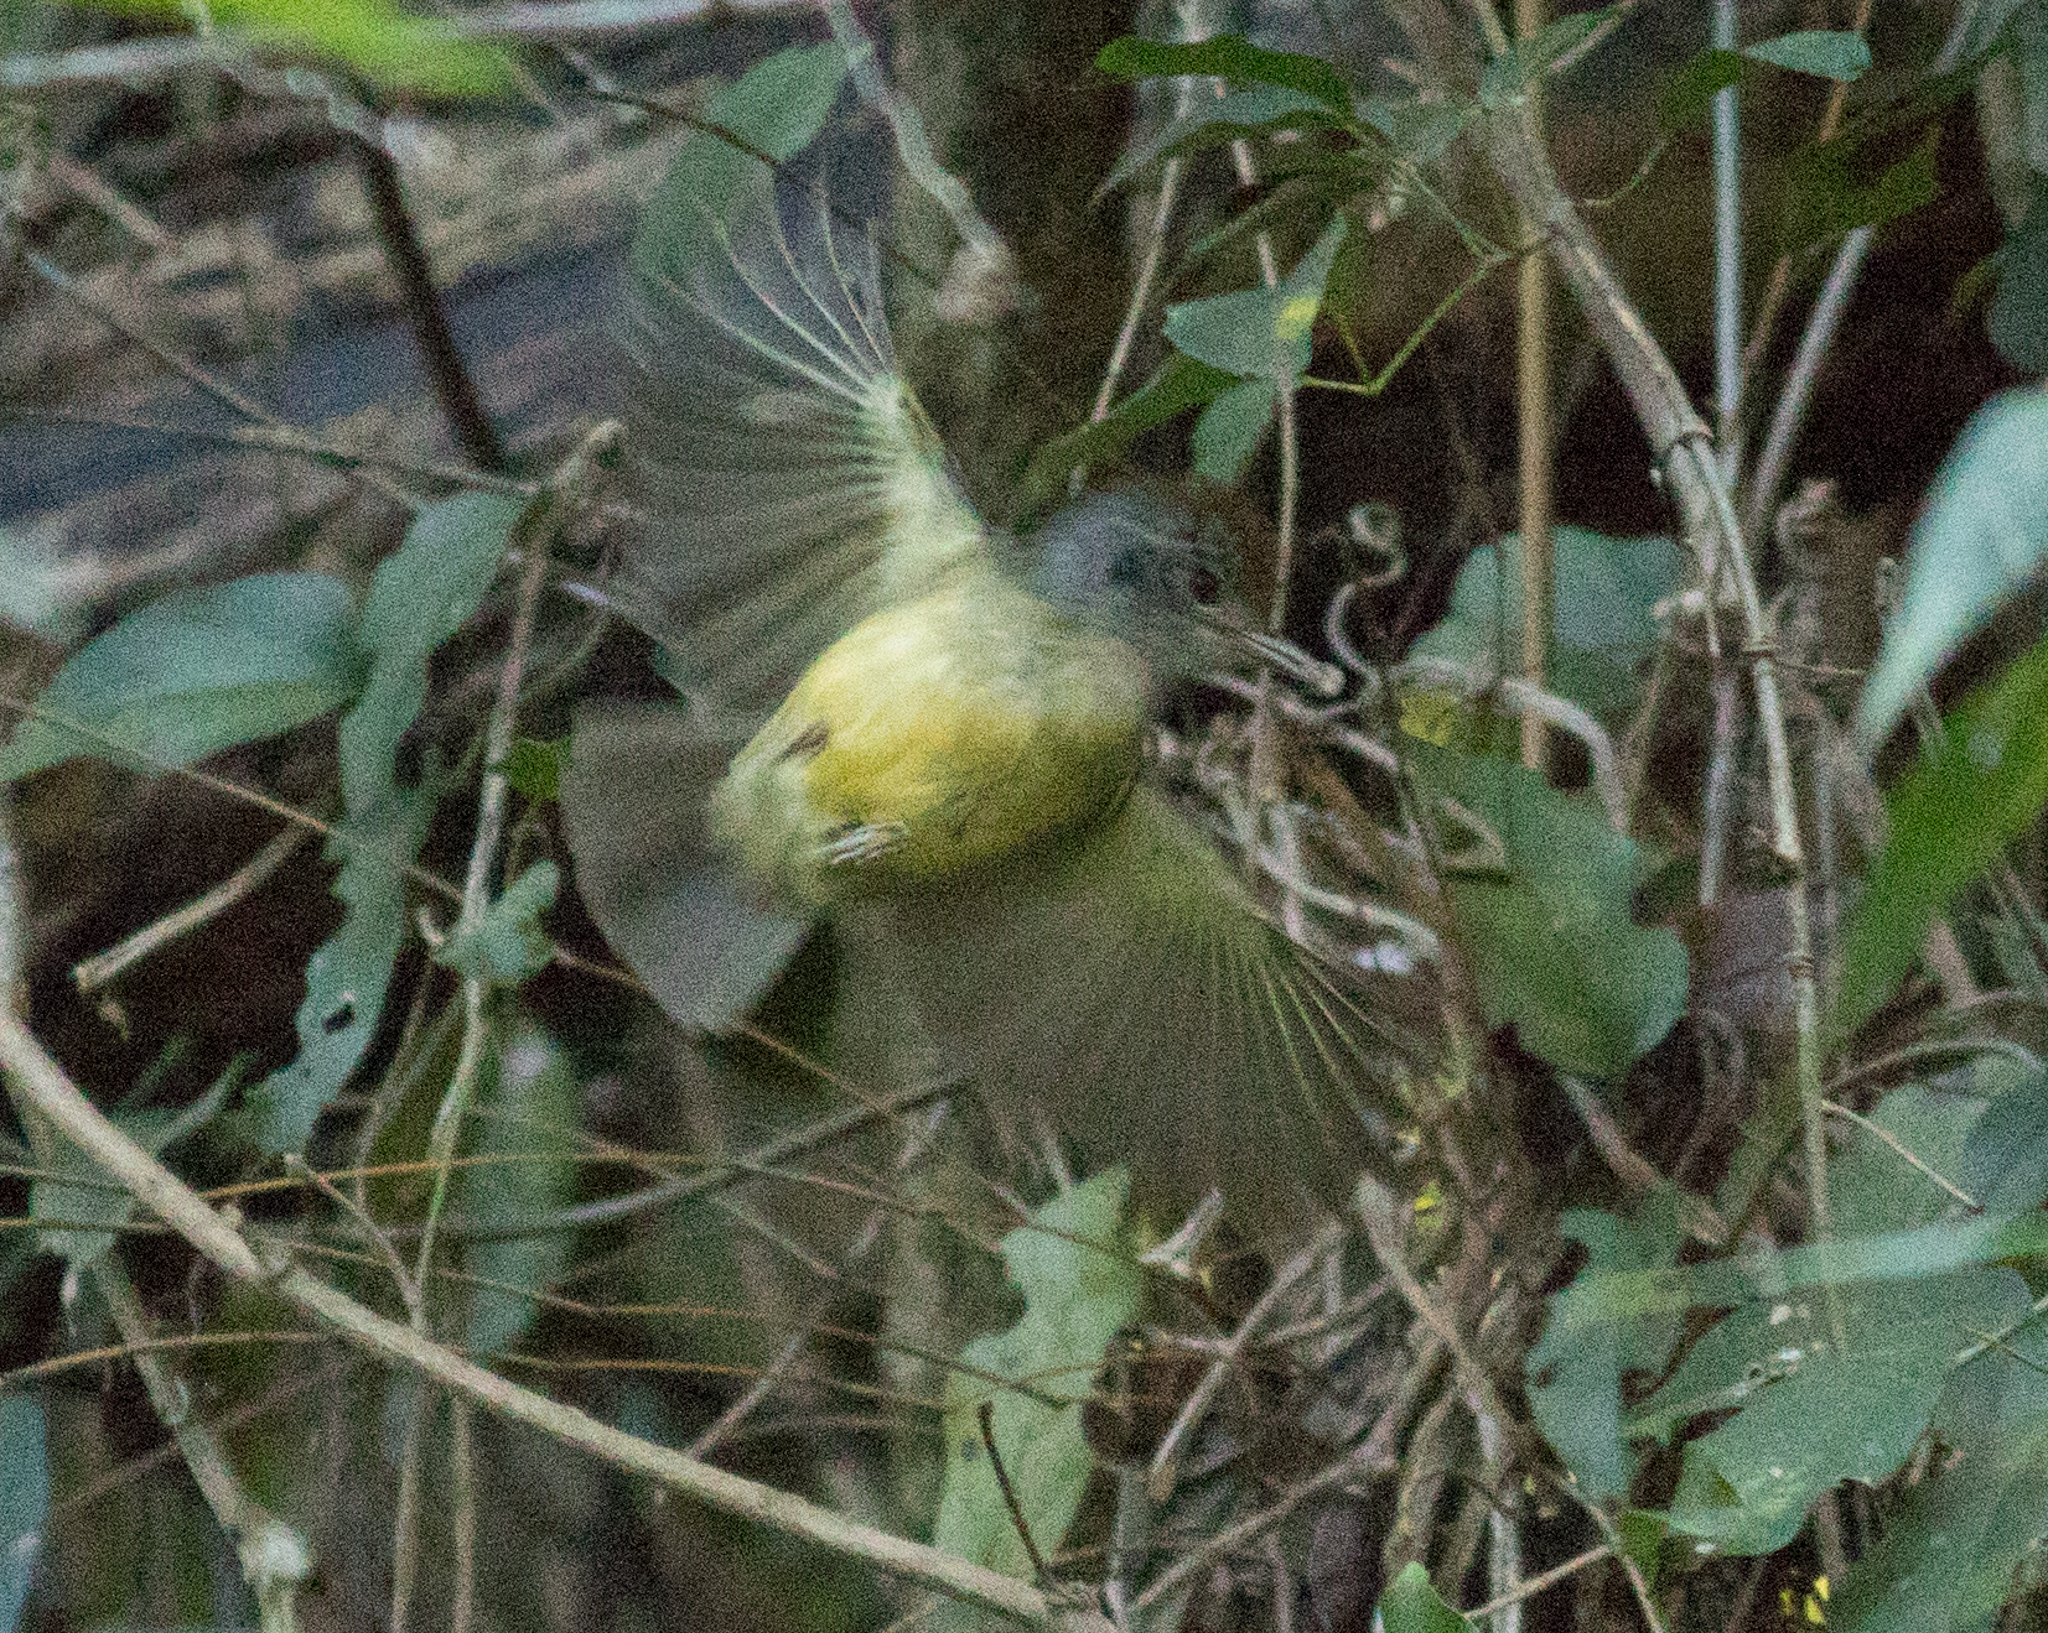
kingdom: Animalia
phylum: Chordata
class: Aves
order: Passeriformes
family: Thamnophilidae
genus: Dysithamnus
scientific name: Dysithamnus mentalis
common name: Plain antvireo
